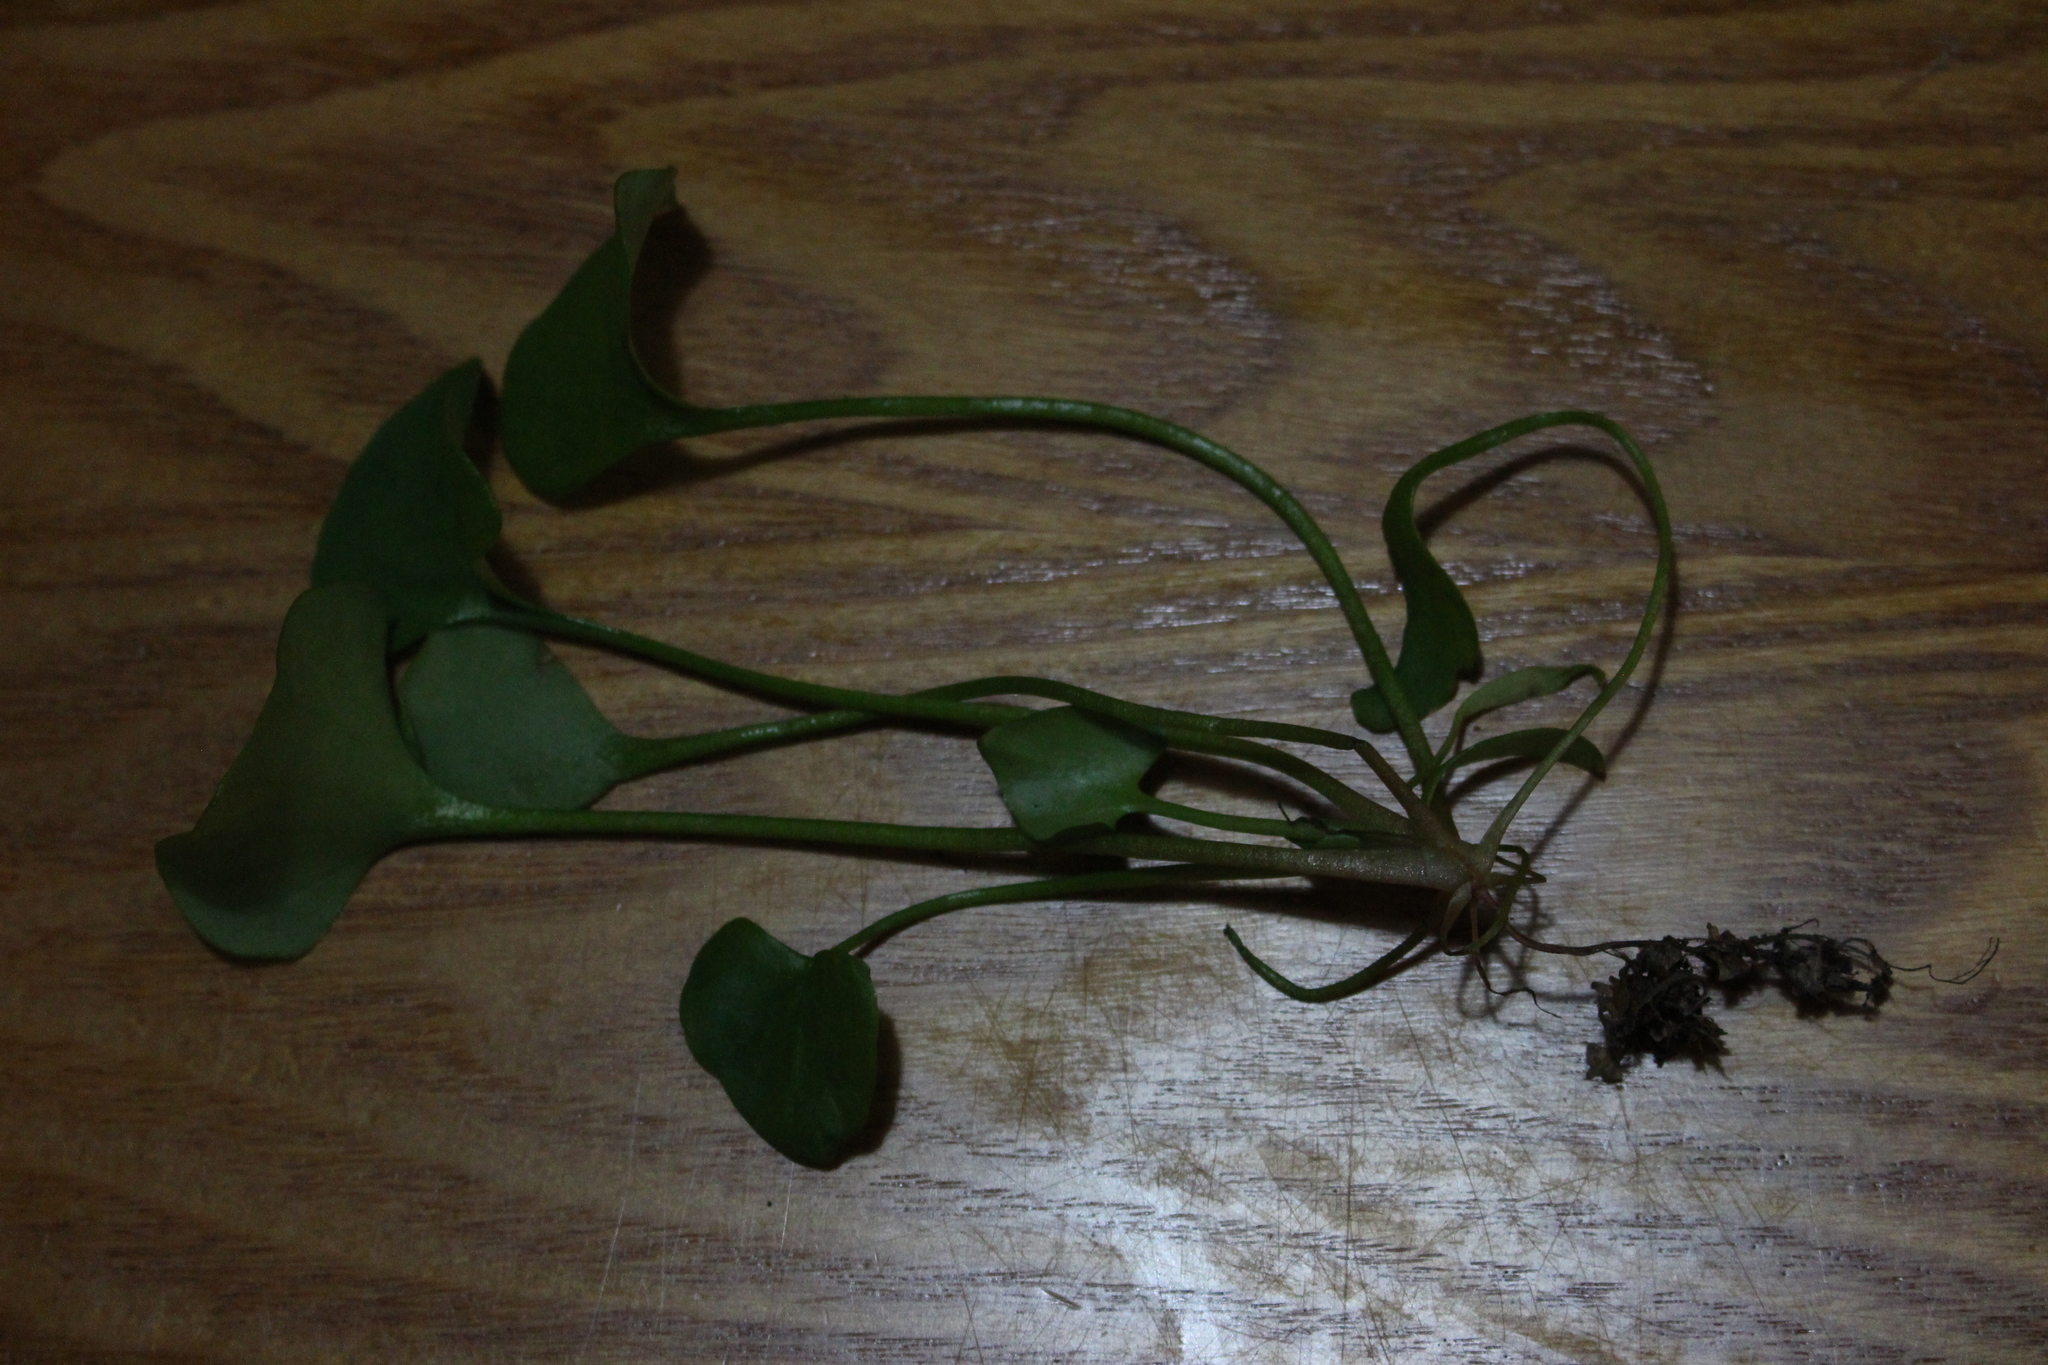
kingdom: Plantae
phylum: Tracheophyta
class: Magnoliopsida
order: Caryophyllales
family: Montiaceae
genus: Claytonia
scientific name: Claytonia perfoliata
